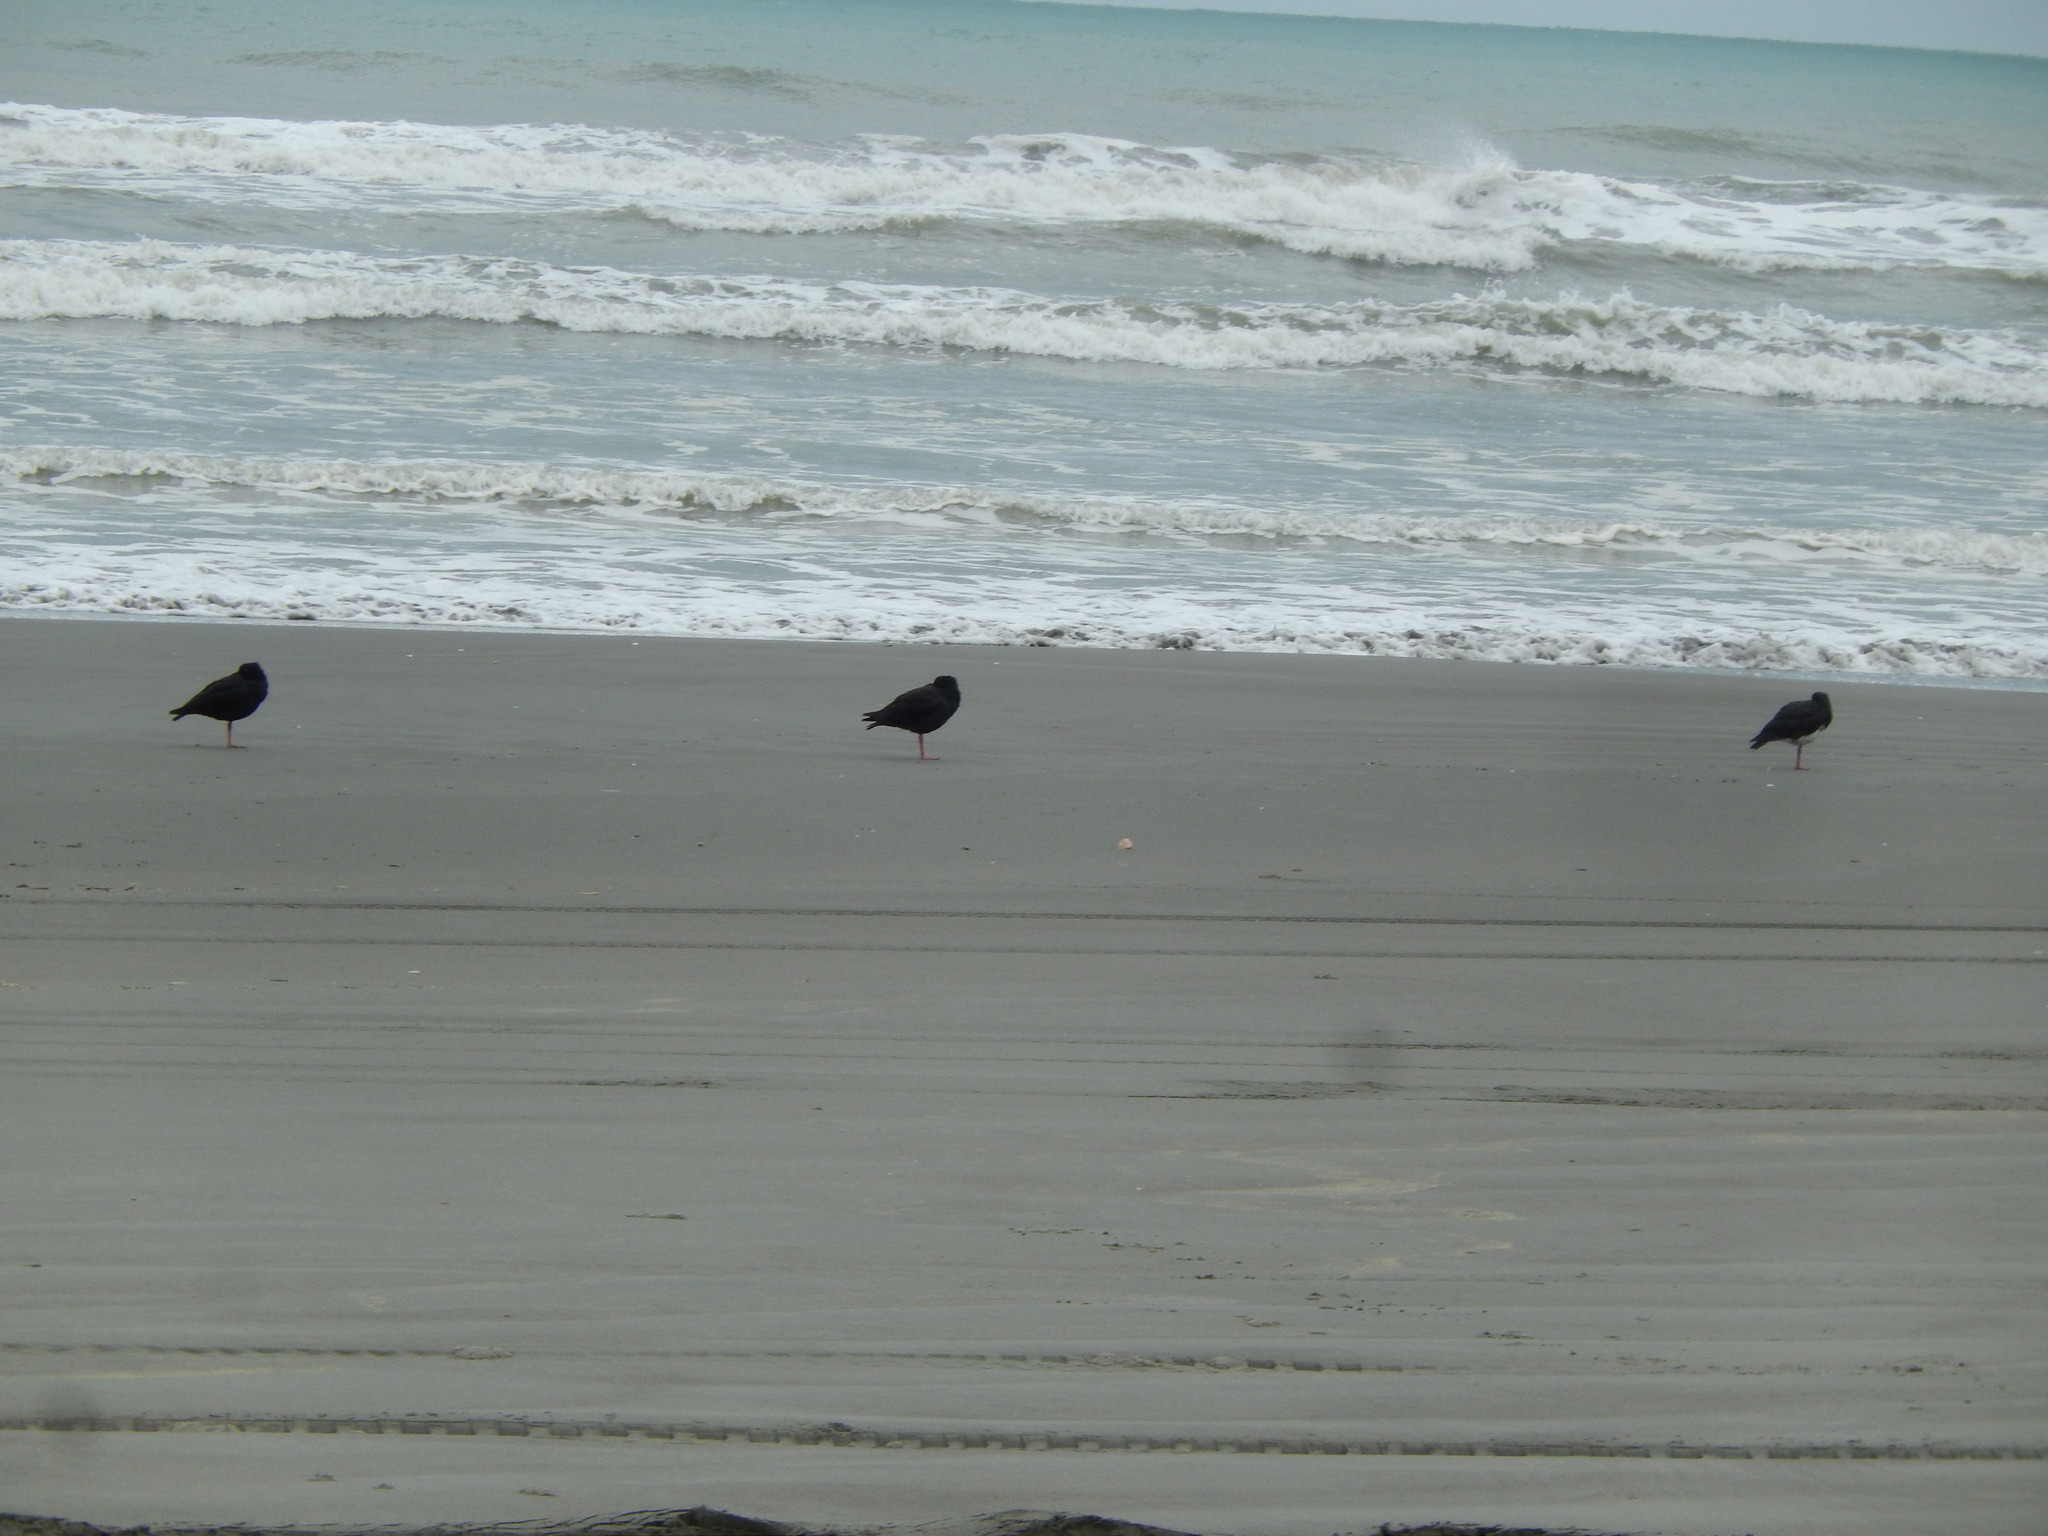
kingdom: Animalia
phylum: Chordata
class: Aves
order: Charadriiformes
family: Haematopodidae
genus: Haematopus
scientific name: Haematopus unicolor
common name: Variable oystercatcher
